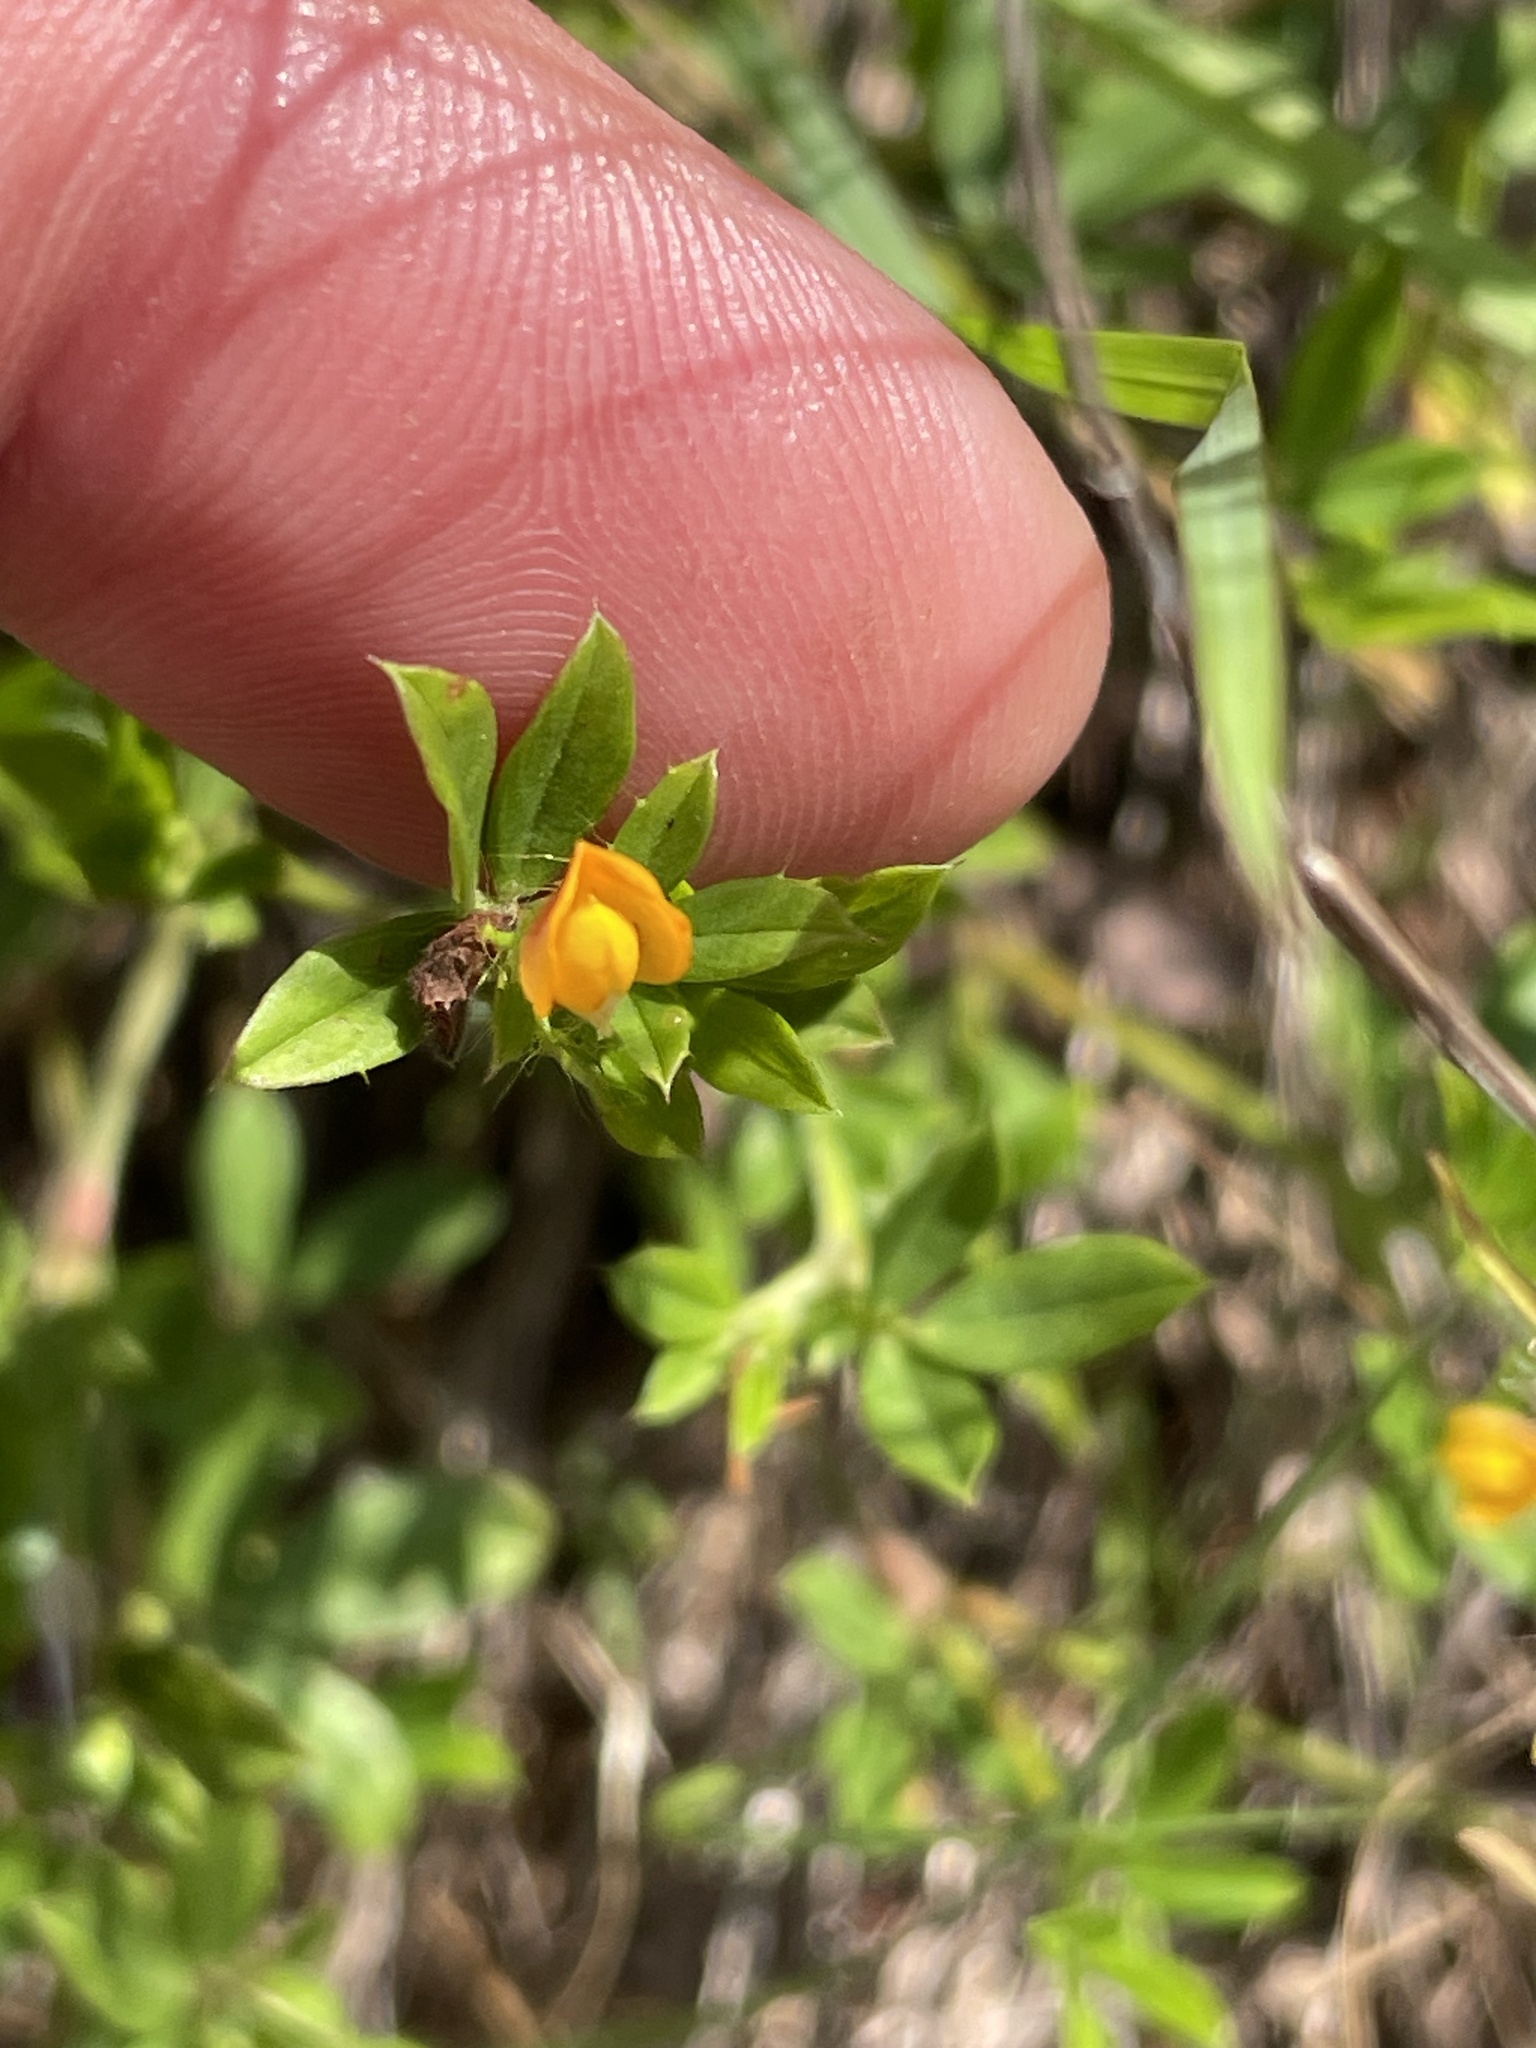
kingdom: Plantae
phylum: Tracheophyta
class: Magnoliopsida
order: Fabales
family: Fabaceae
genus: Stylosanthes
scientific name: Stylosanthes biflora
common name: Two-flower pencil-flower
